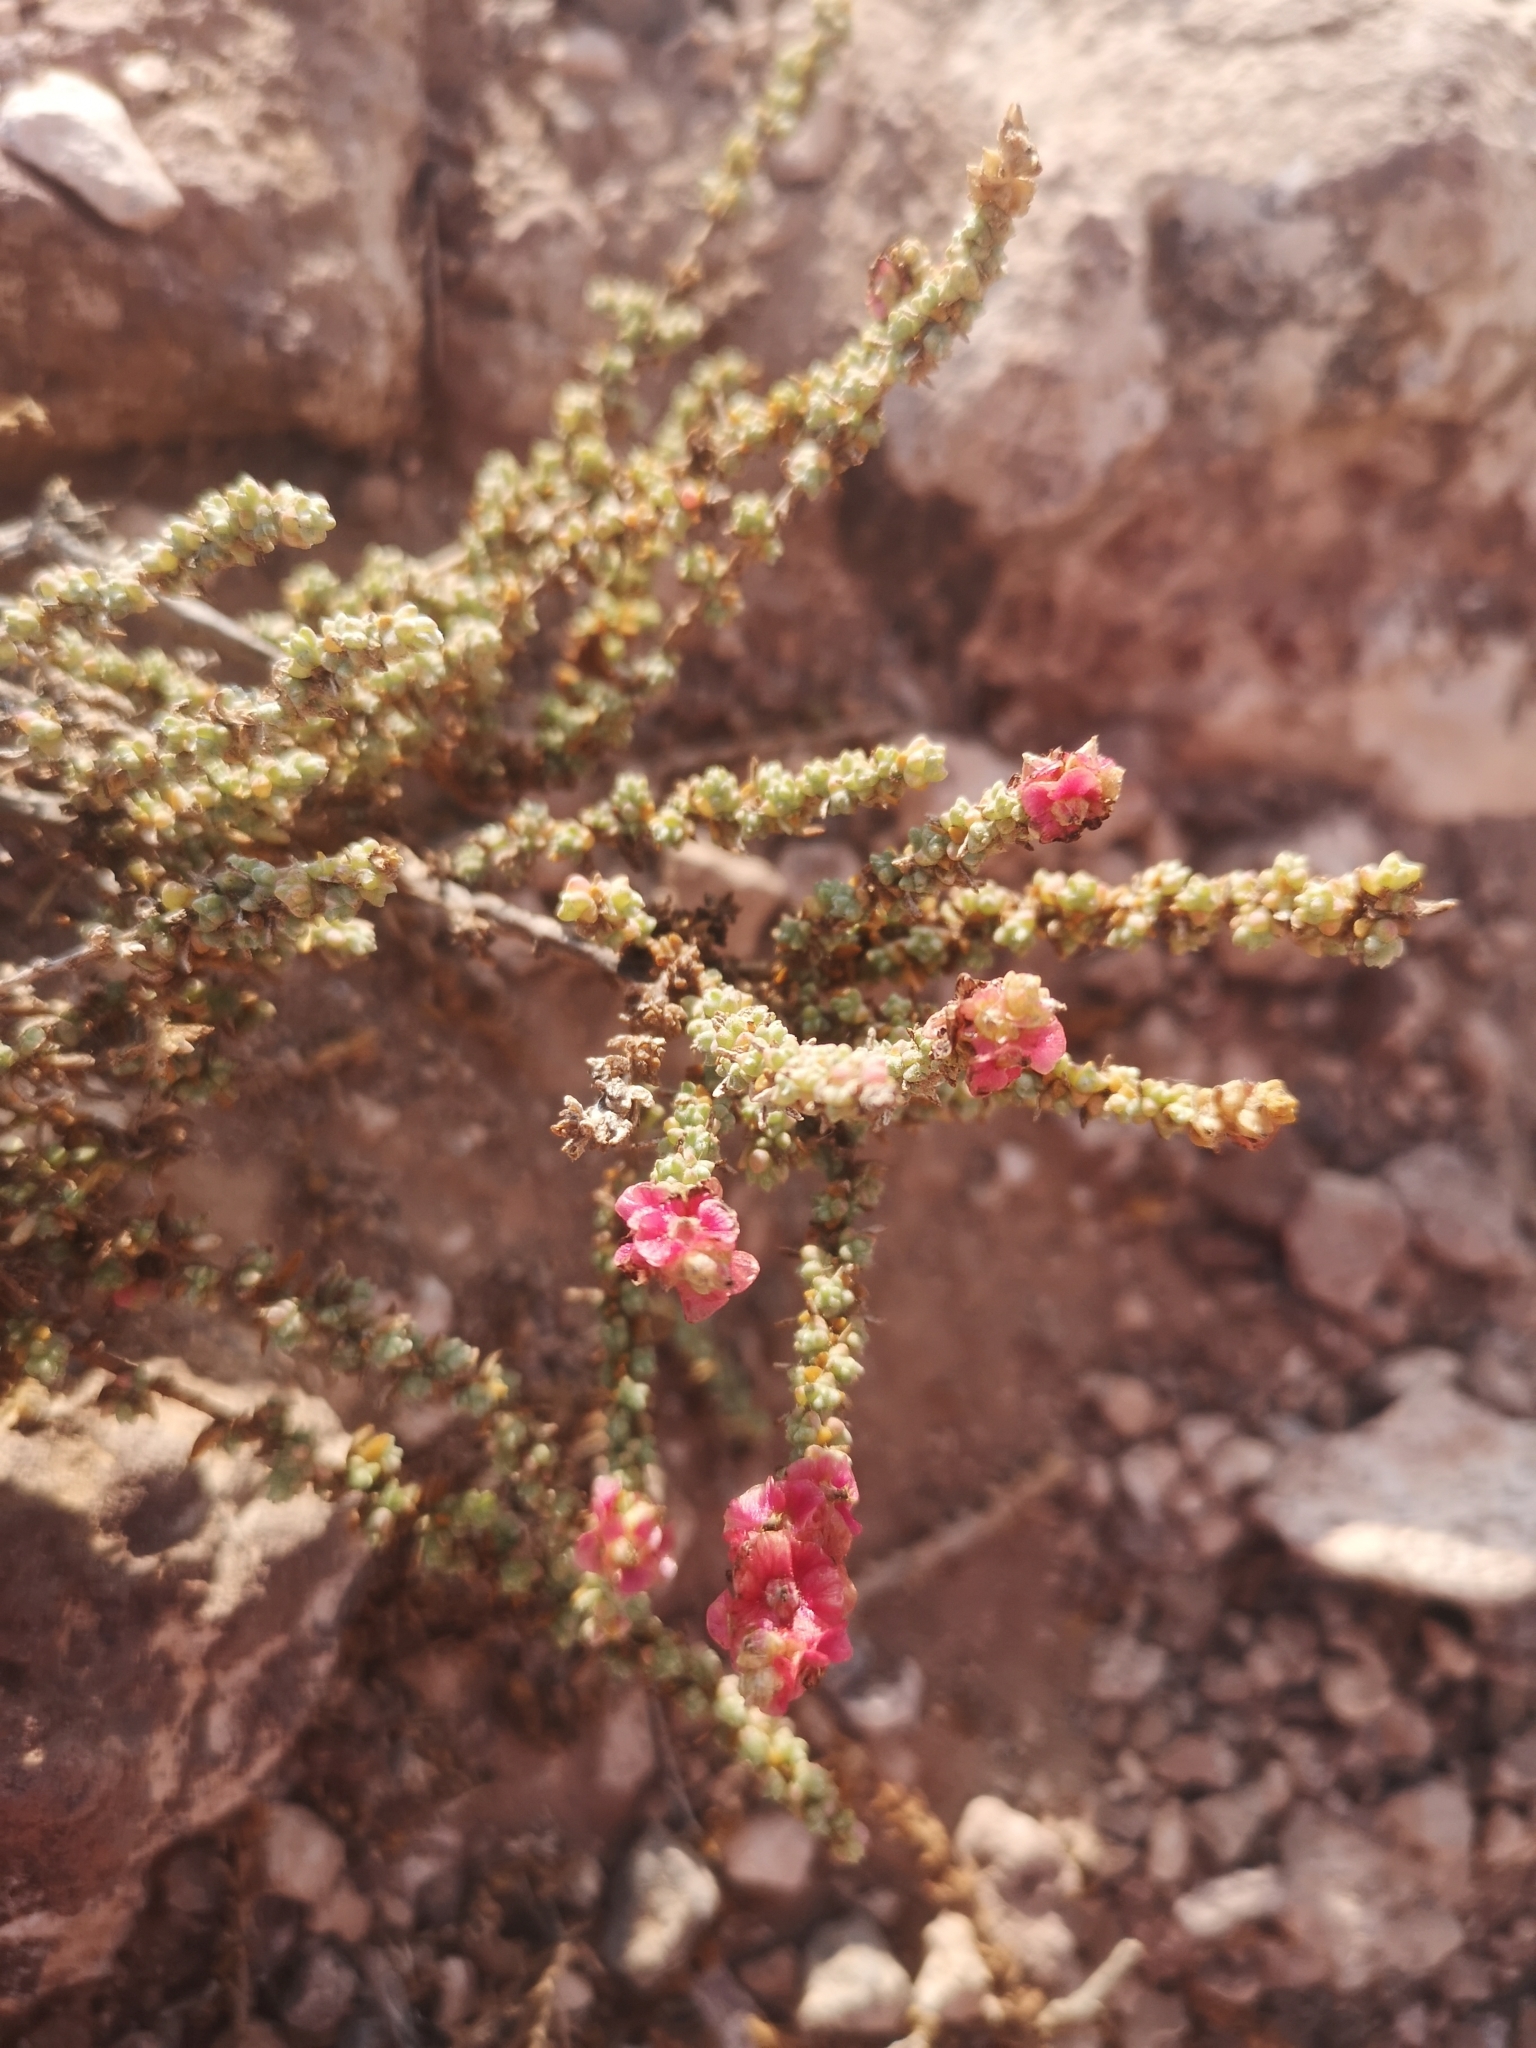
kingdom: Plantae
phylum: Tracheophyta
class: Magnoliopsida
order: Caryophyllales
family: Amaranthaceae
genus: Nitrosalsola
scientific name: Nitrosalsola vermiculata
